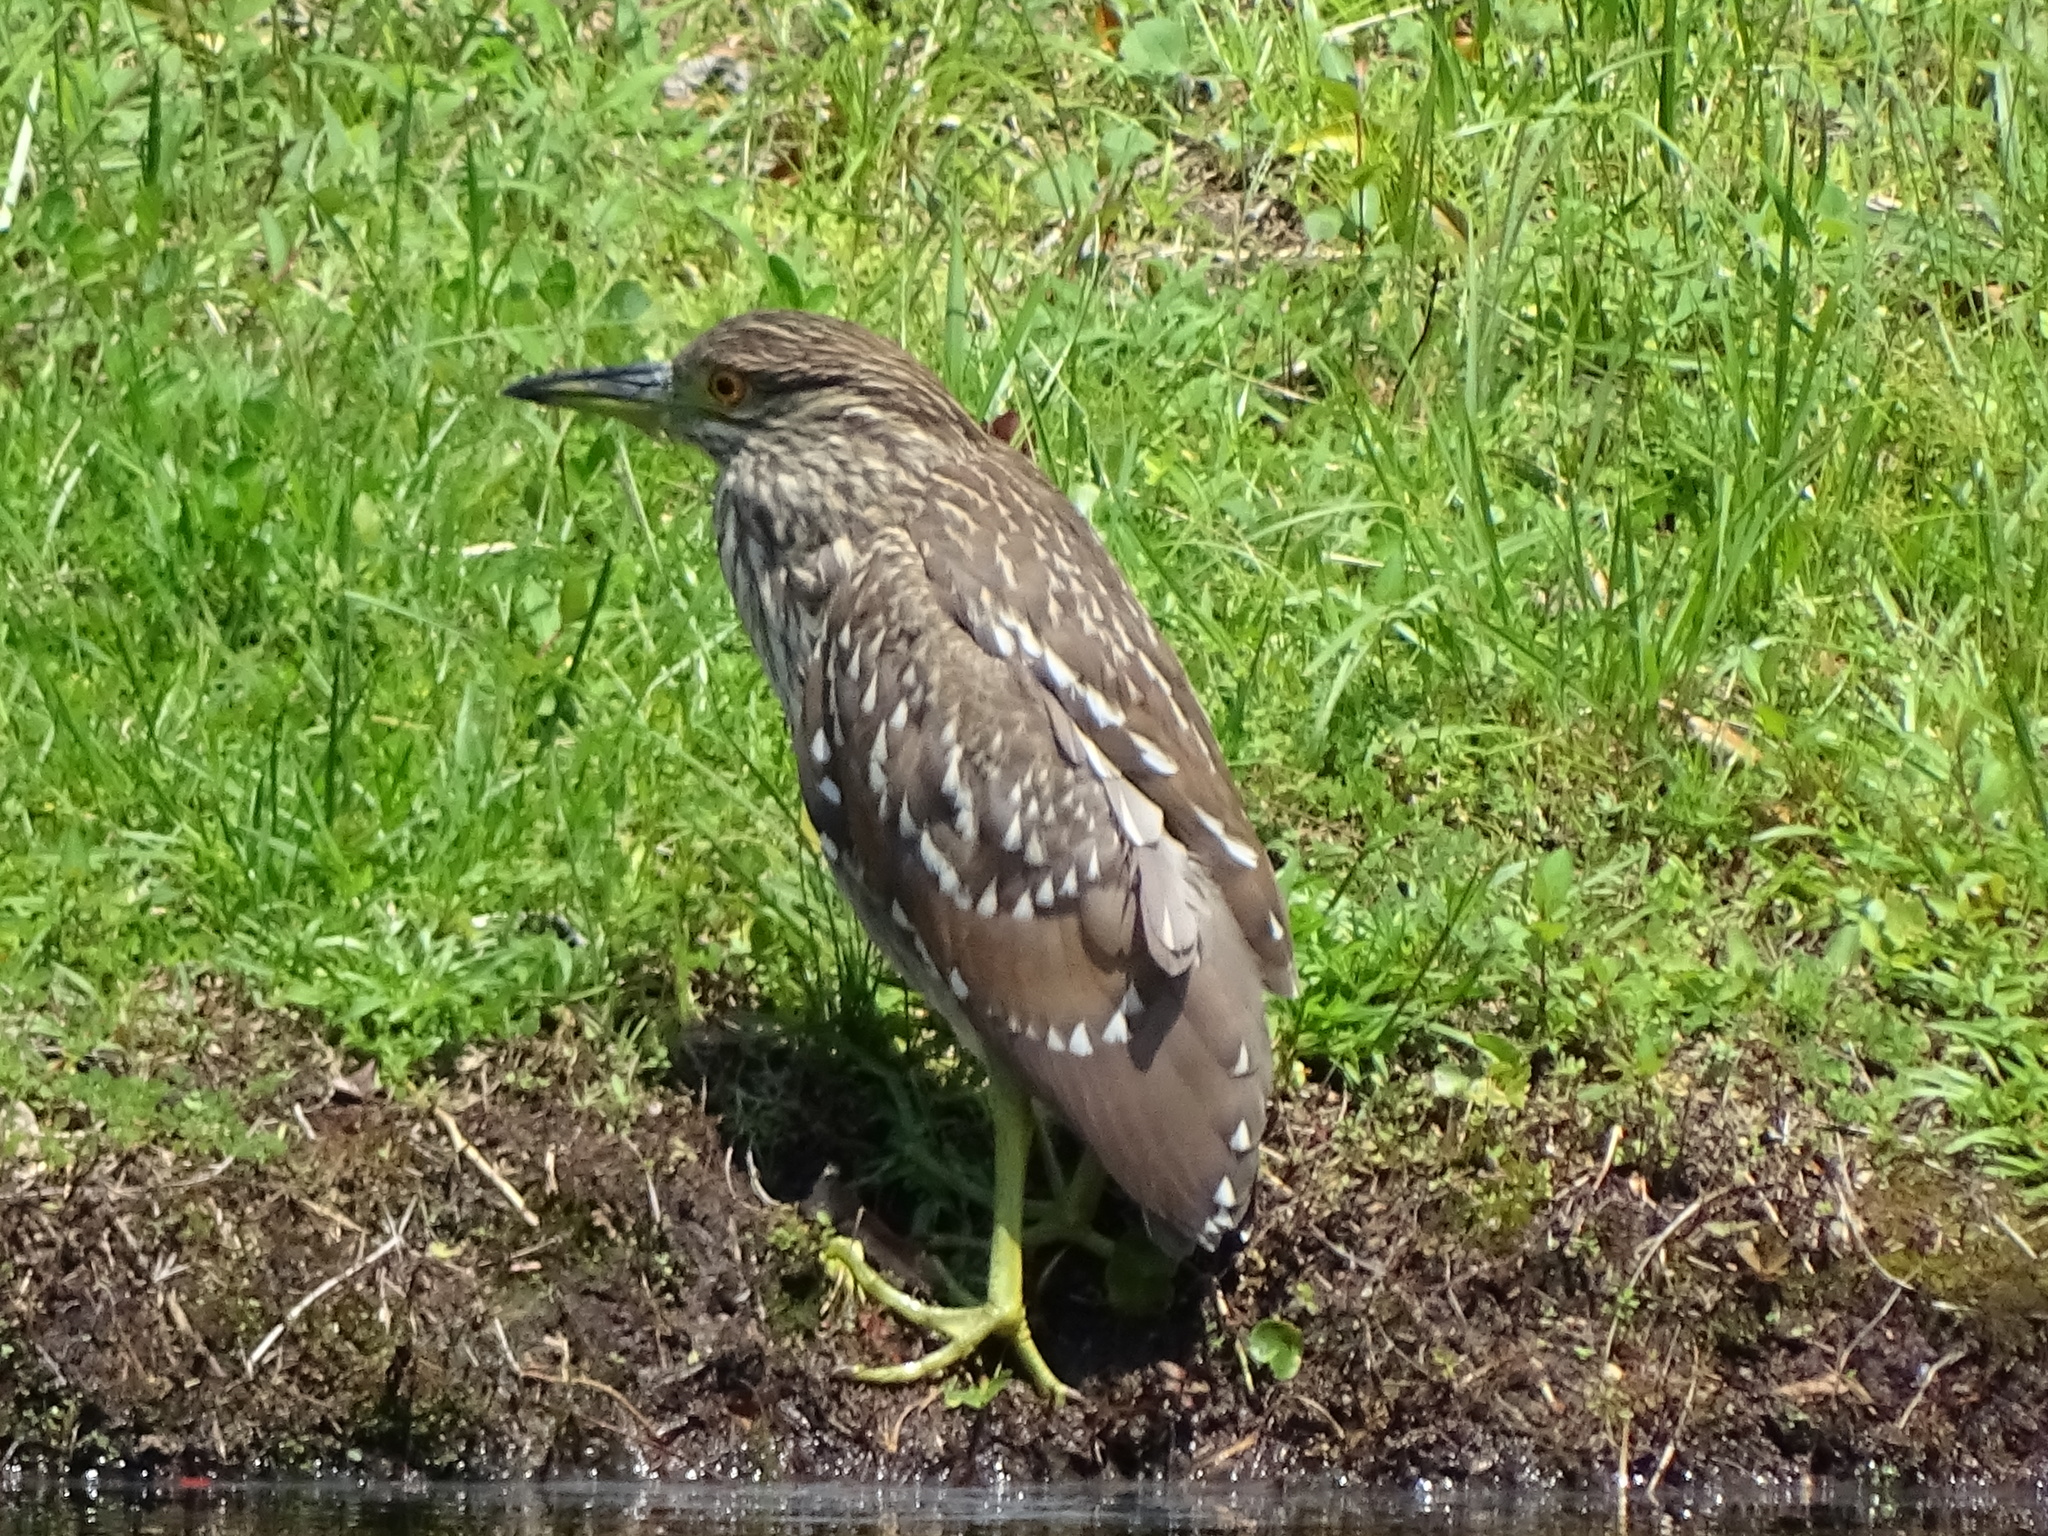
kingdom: Animalia
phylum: Chordata
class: Aves
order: Pelecaniformes
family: Ardeidae
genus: Nycticorax
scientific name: Nycticorax nycticorax
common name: Black-crowned night heron
